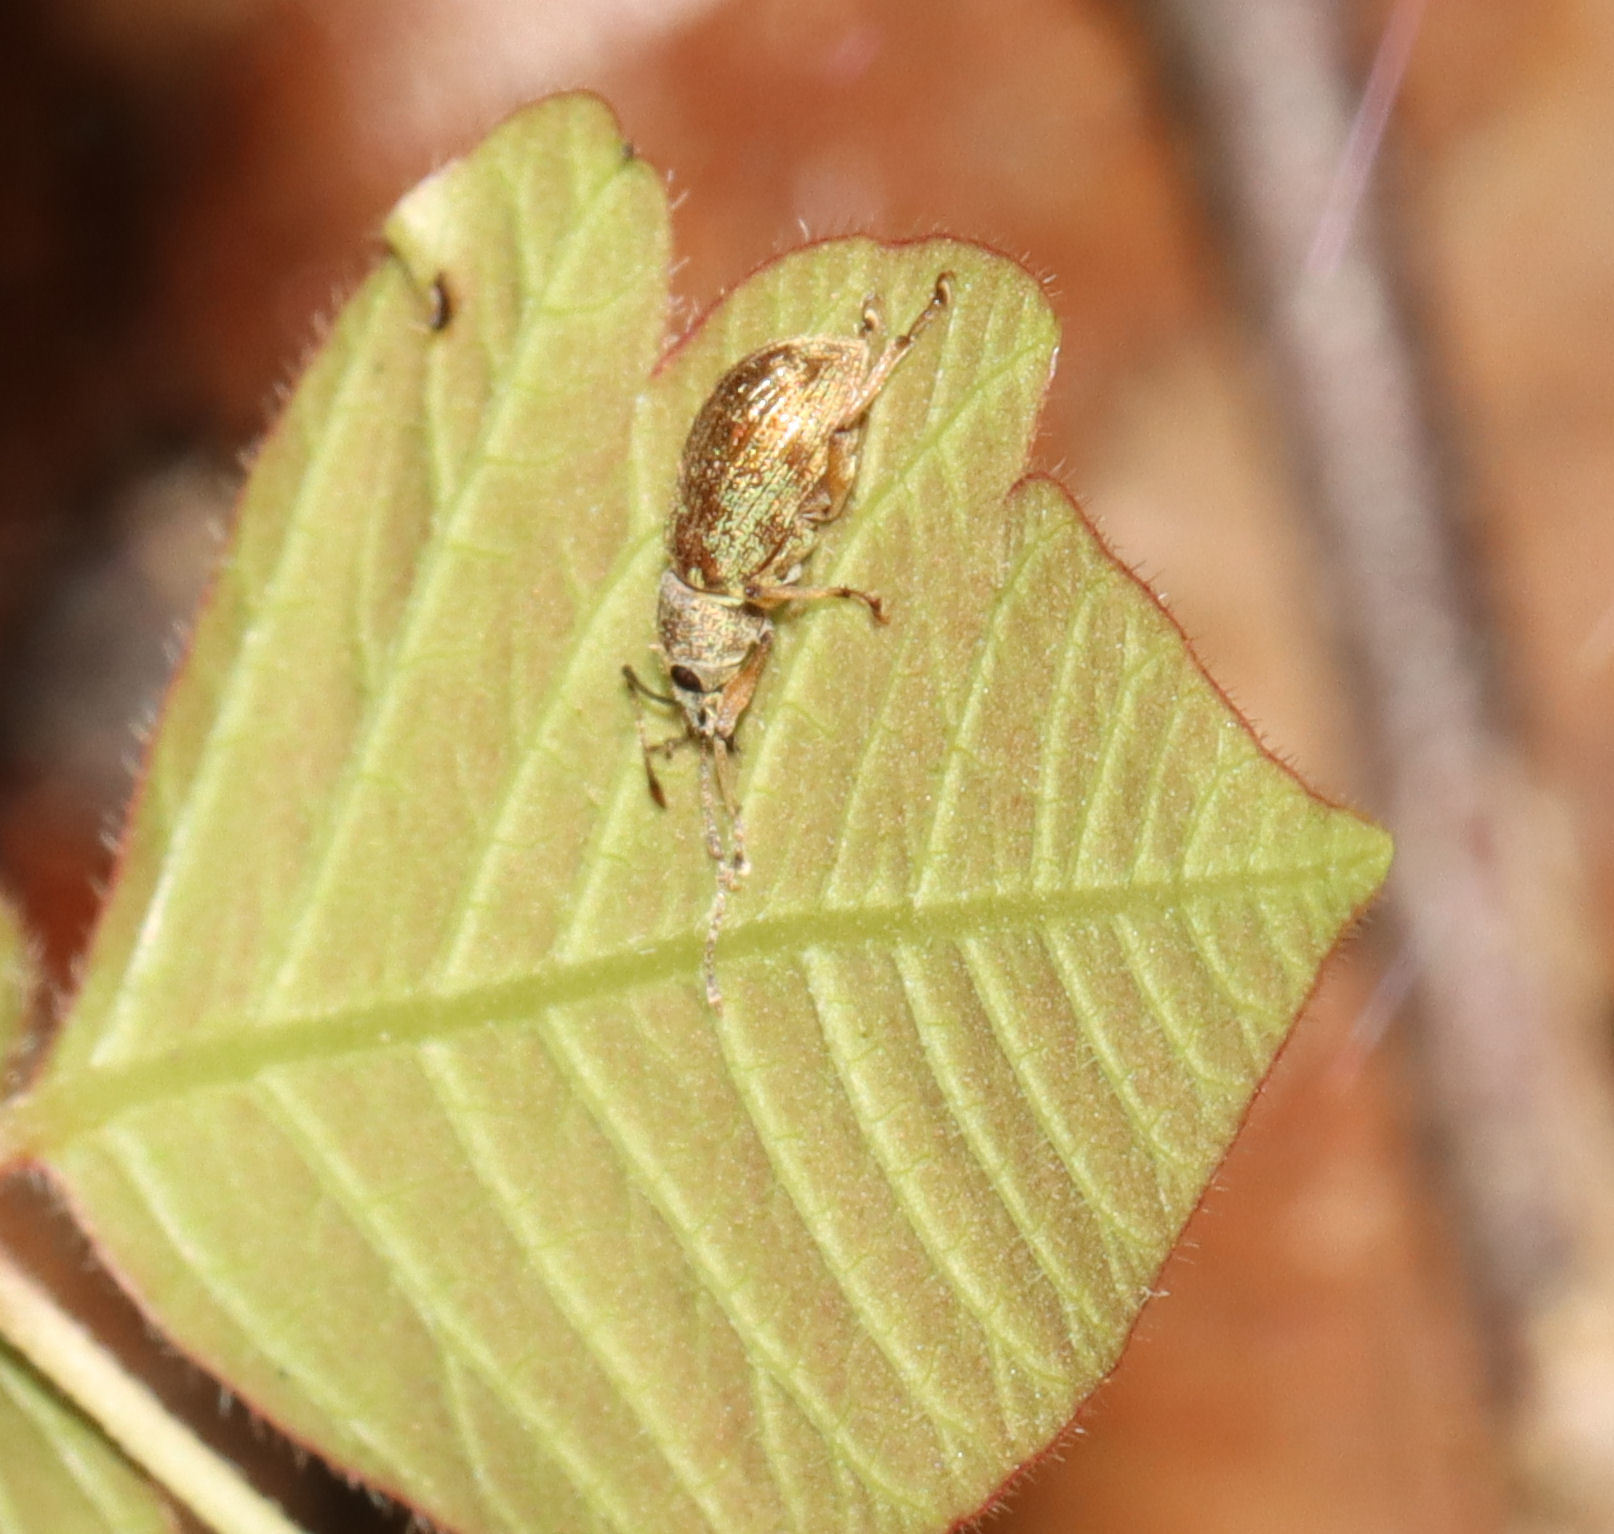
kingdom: Animalia
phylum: Arthropoda
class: Insecta
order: Coleoptera
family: Curculionidae
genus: Cyrtepistomus
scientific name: Cyrtepistomus castaneus
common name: Weevil
